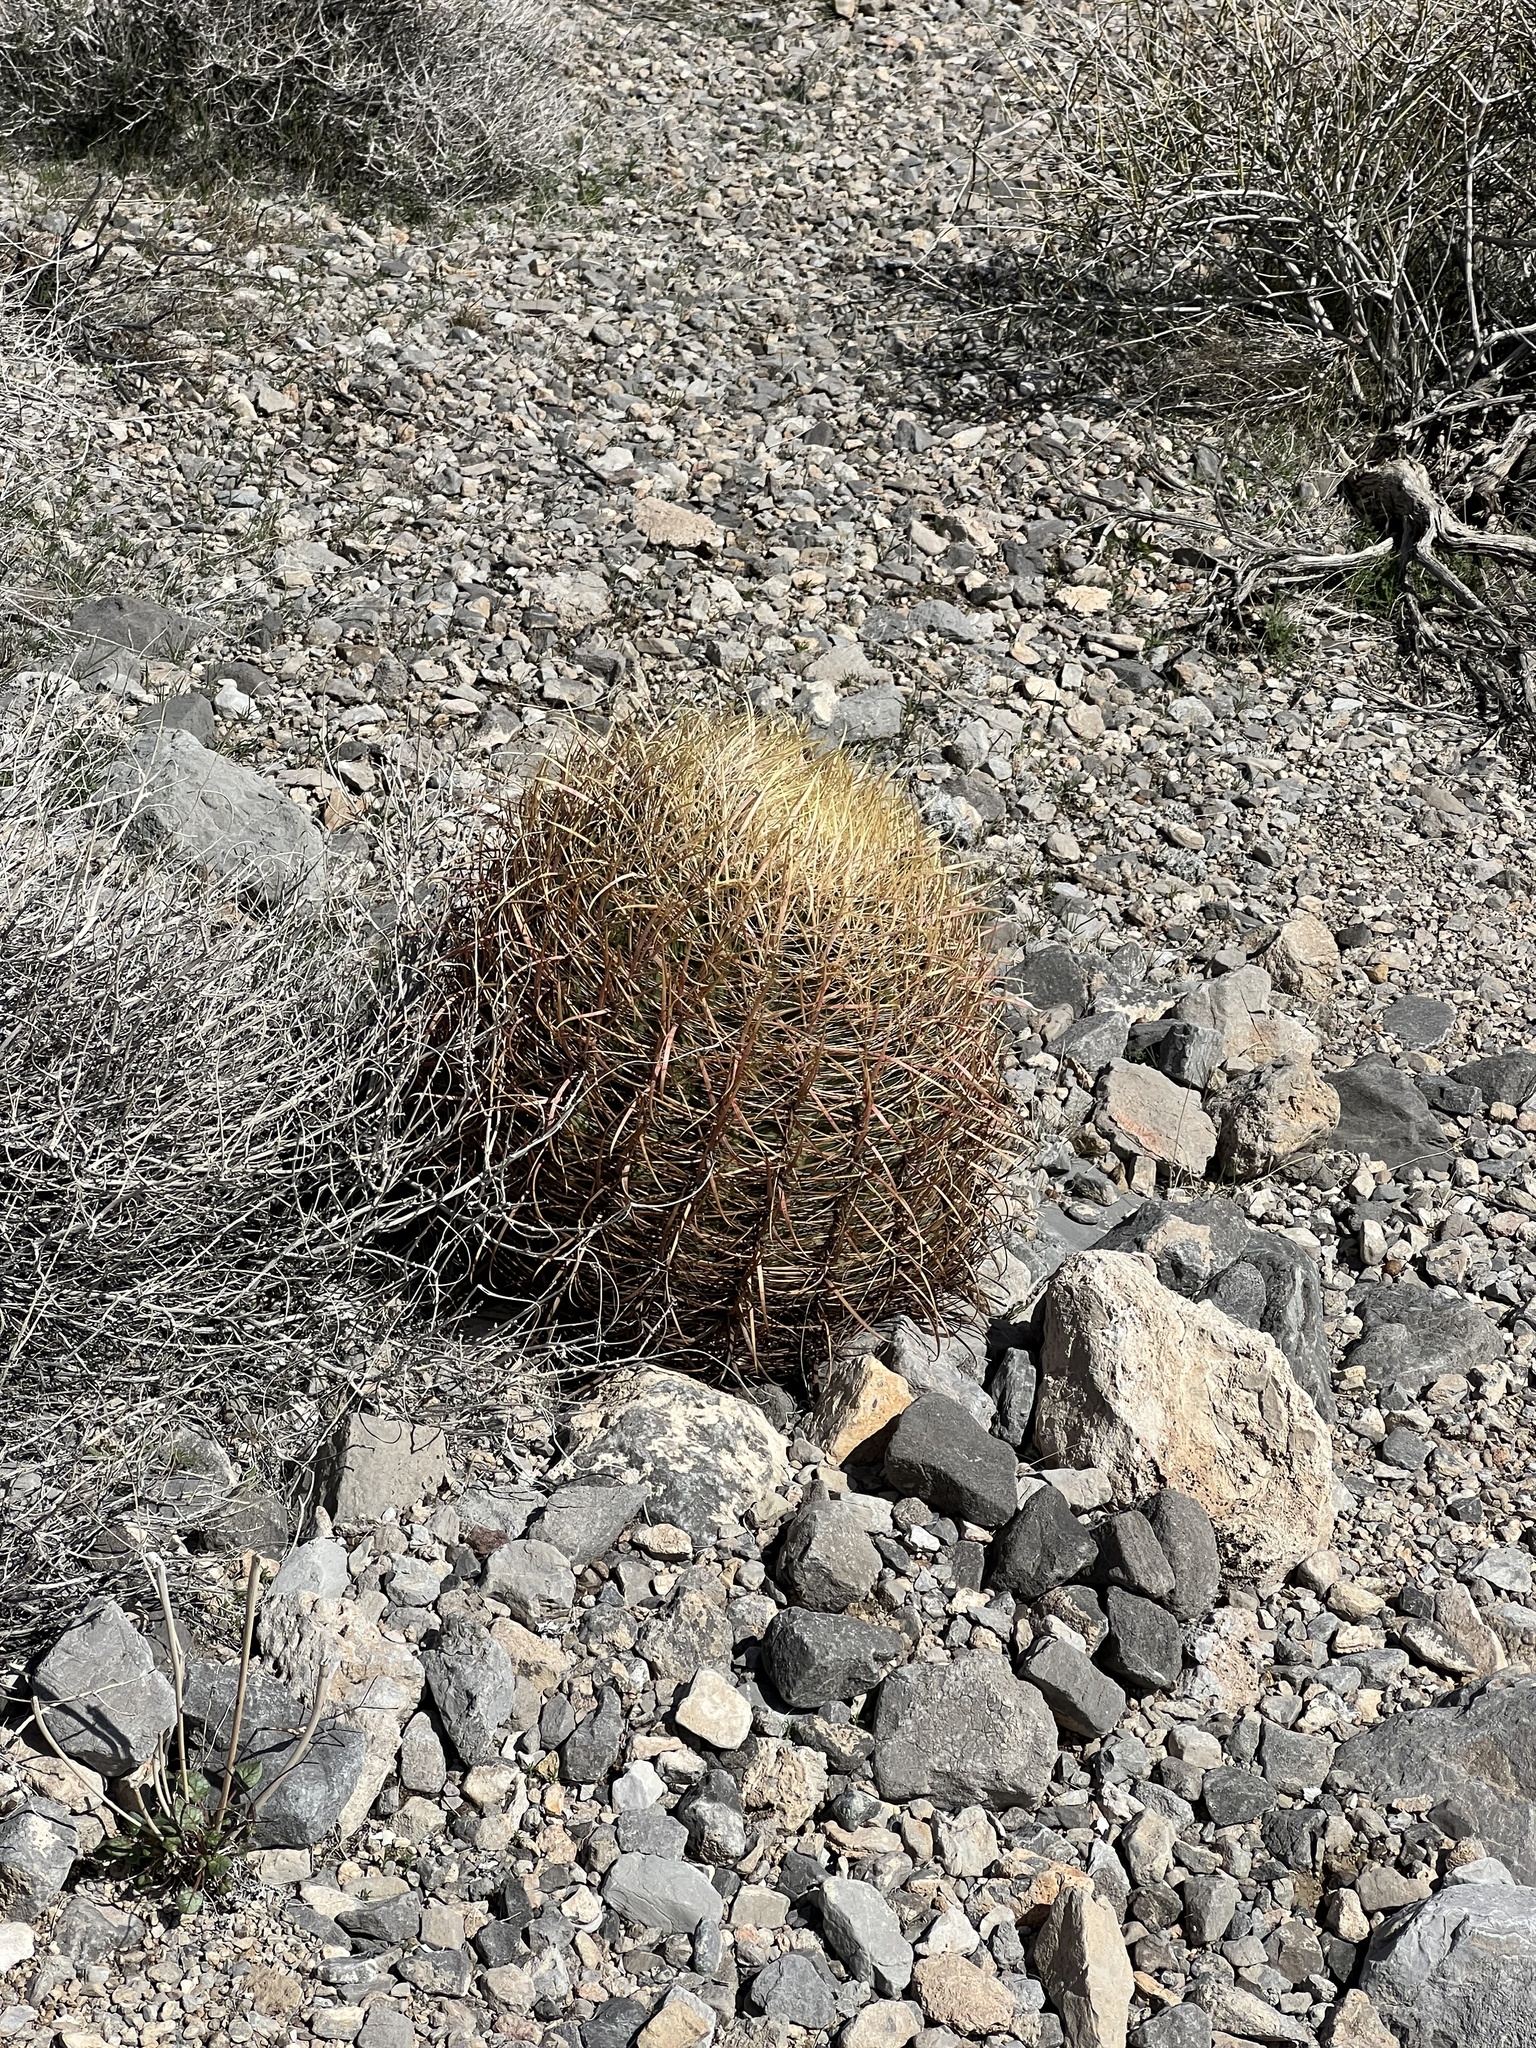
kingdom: Plantae
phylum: Tracheophyta
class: Magnoliopsida
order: Caryophyllales
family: Cactaceae
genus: Ferocactus
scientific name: Ferocactus cylindraceus
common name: California barrel cactus
